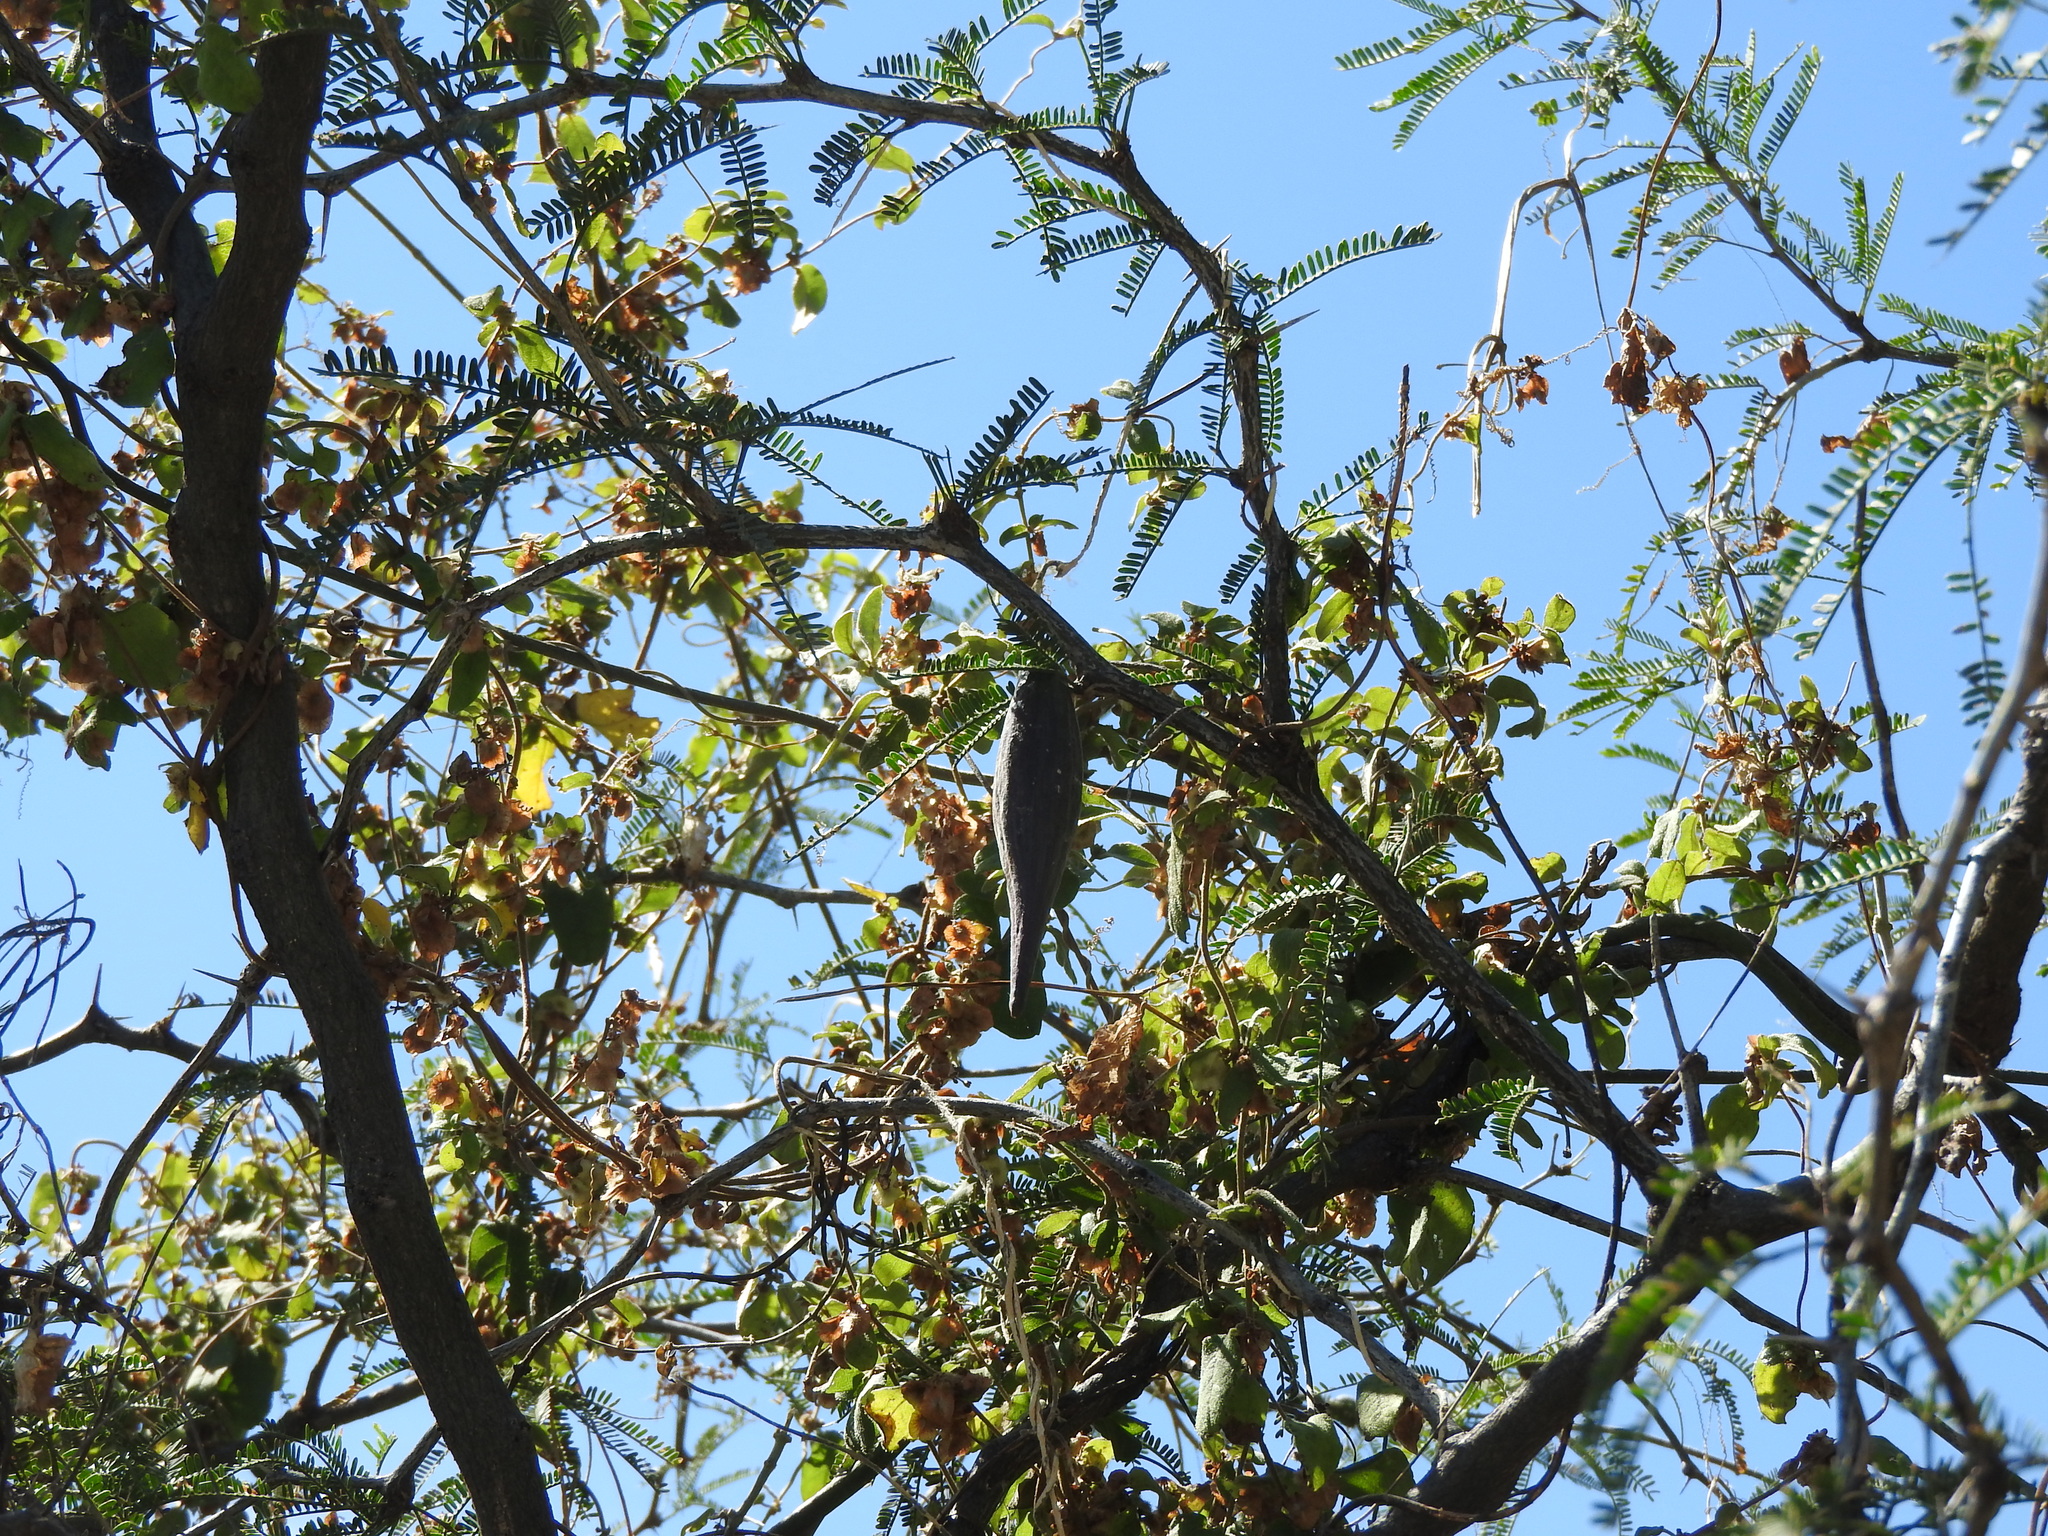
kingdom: Plantae
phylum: Tracheophyta
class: Magnoliopsida
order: Gentianales
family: Apocynaceae
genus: Funastrum
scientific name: Funastrum elegans
